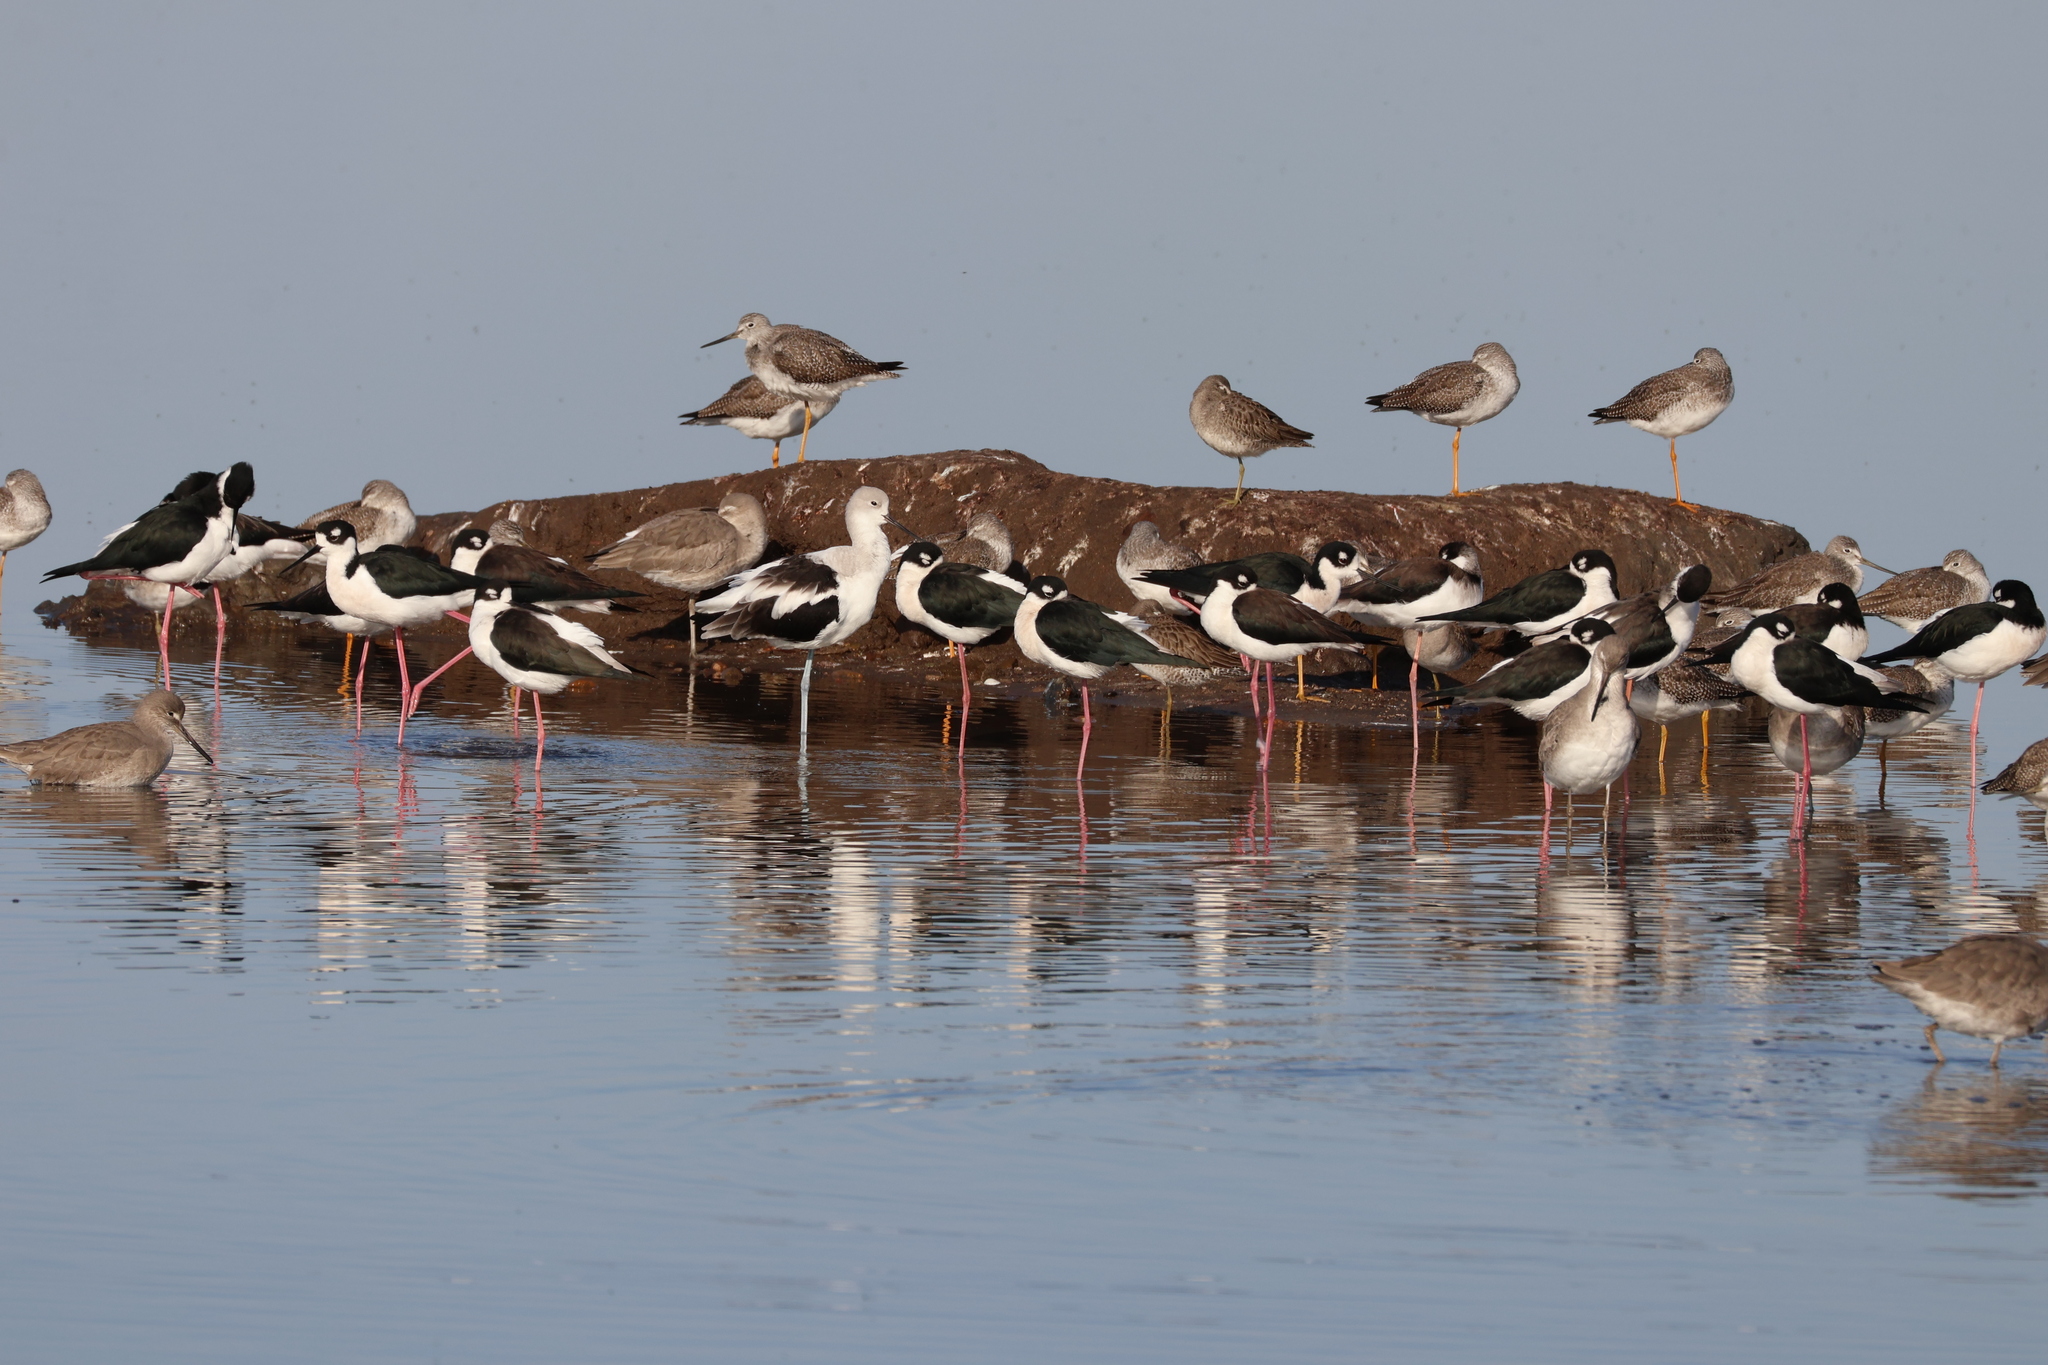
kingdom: Animalia
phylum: Chordata
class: Aves
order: Charadriiformes
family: Recurvirostridae
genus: Himantopus
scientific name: Himantopus mexicanus
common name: Black-necked stilt
